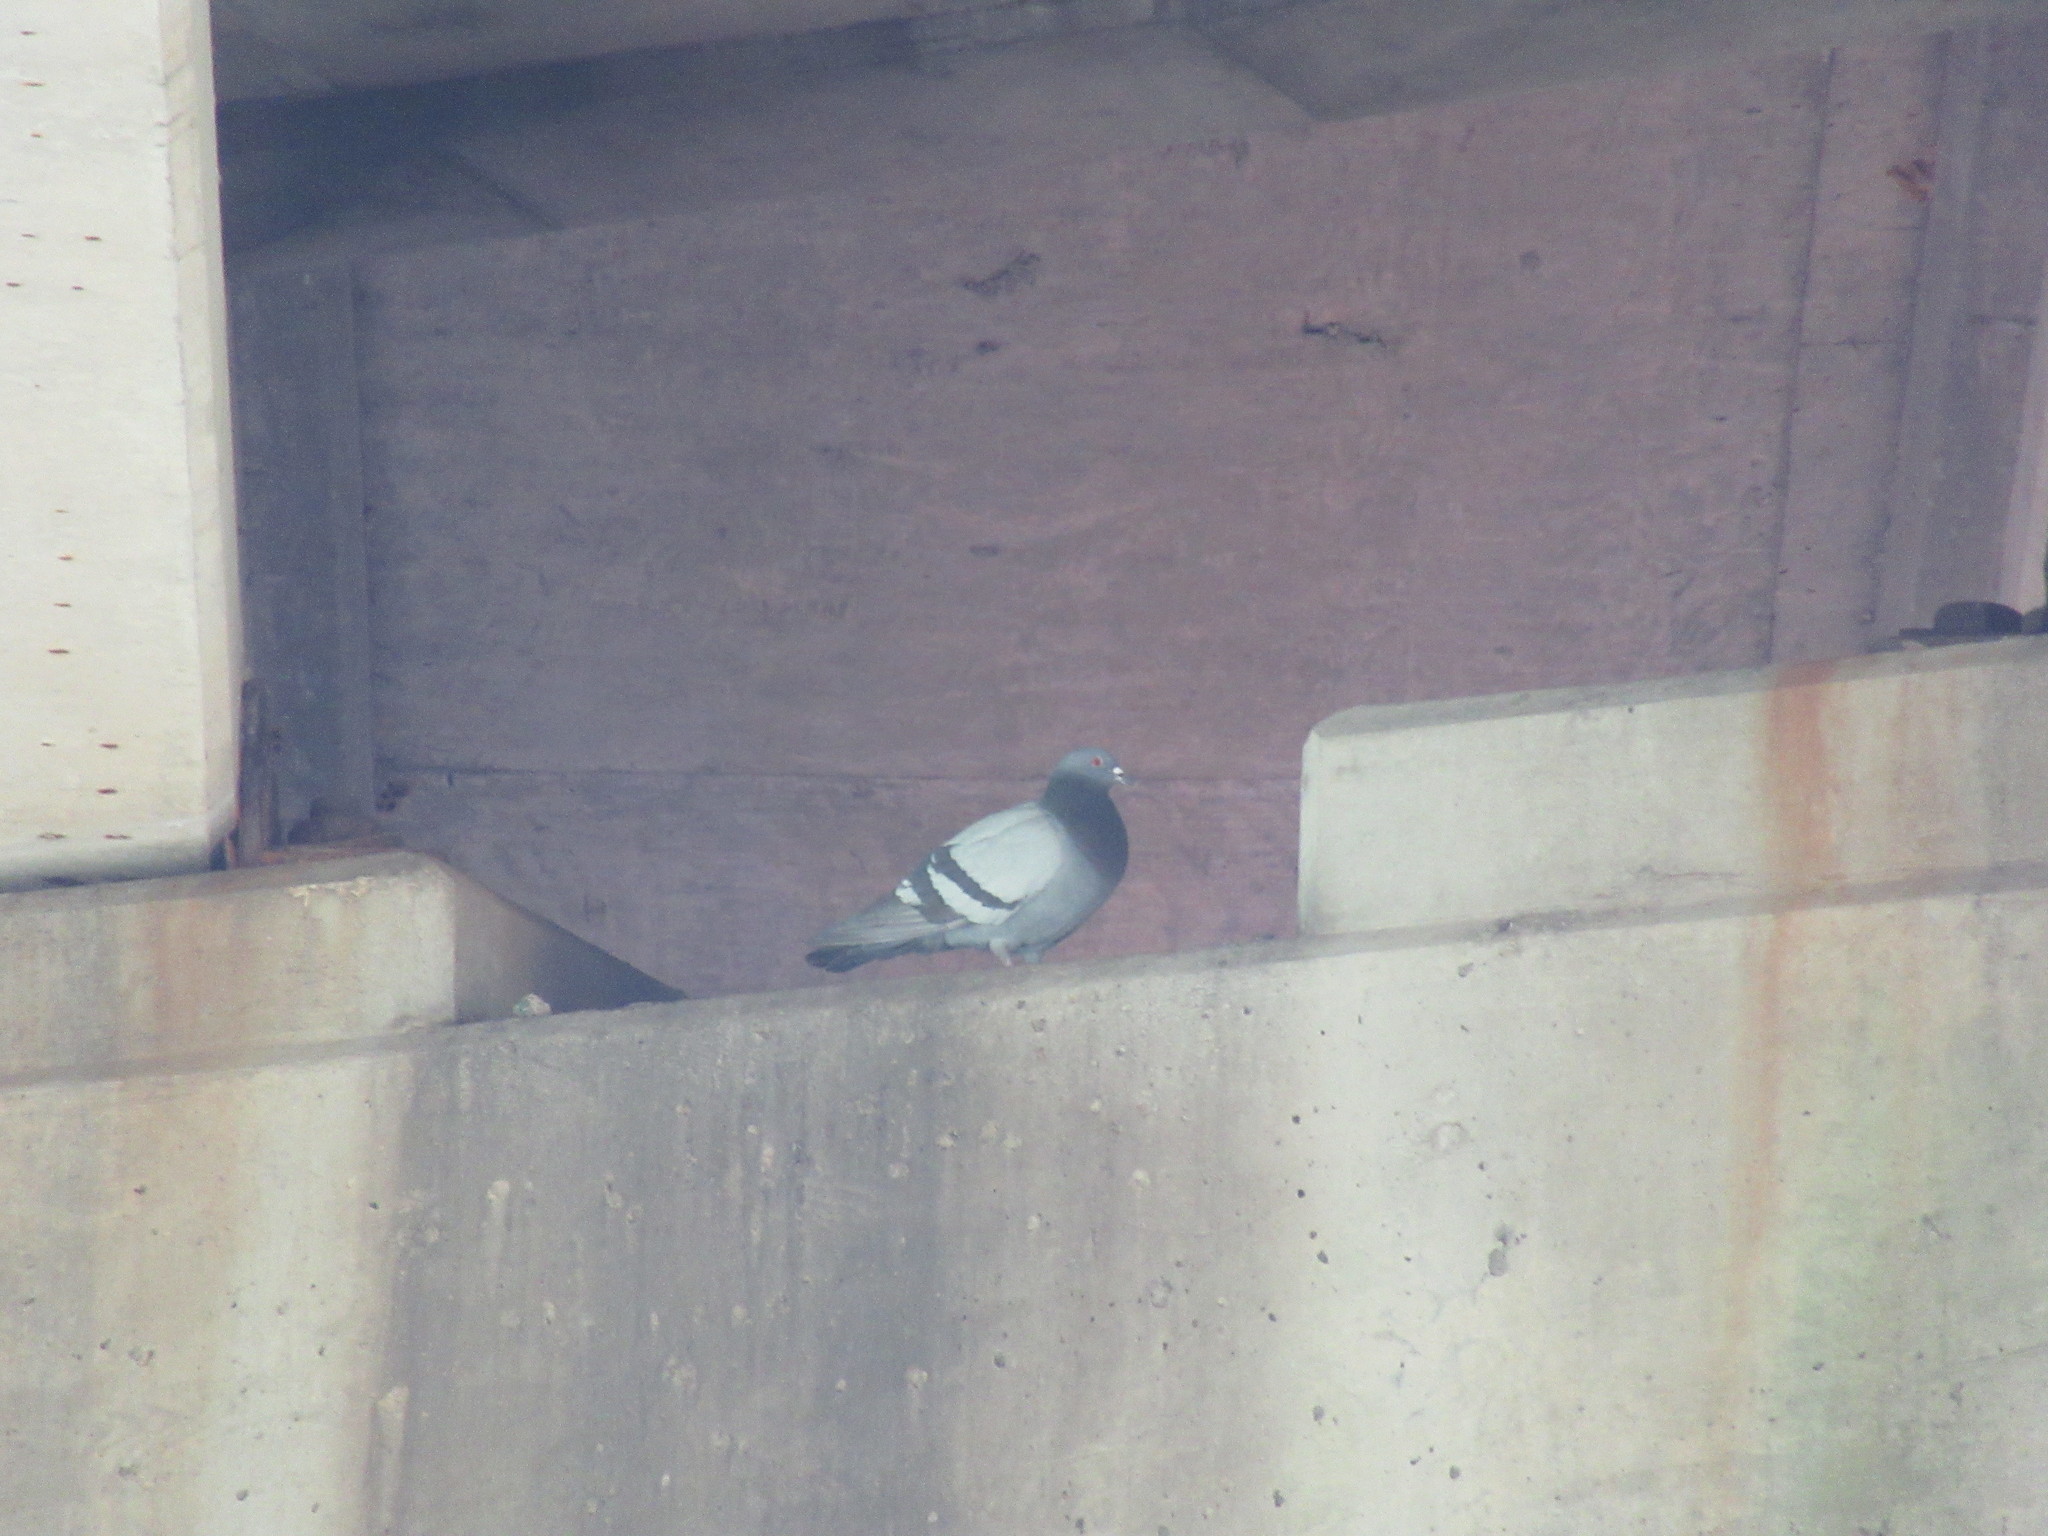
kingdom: Animalia
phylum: Chordata
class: Aves
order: Columbiformes
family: Columbidae
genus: Columba
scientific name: Columba livia
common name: Rock pigeon
